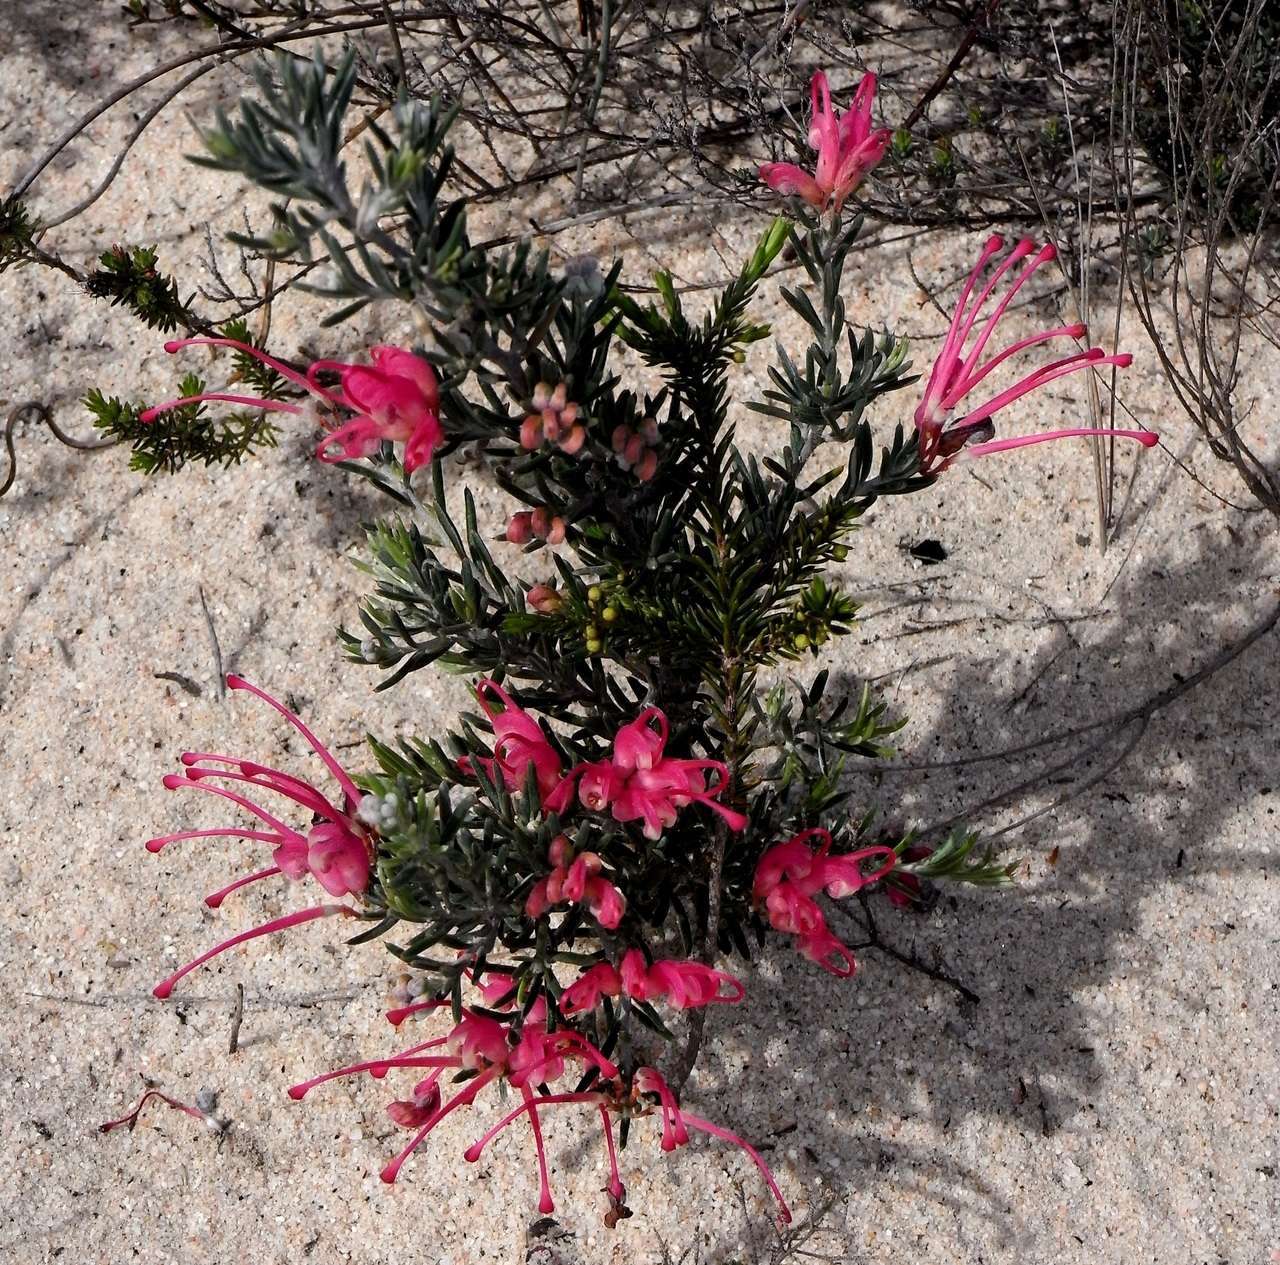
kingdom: Plantae
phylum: Tracheophyta
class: Magnoliopsida
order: Proteales
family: Proteaceae
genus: Grevillea
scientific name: Grevillea lavandulacea
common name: Lavender grevillea
